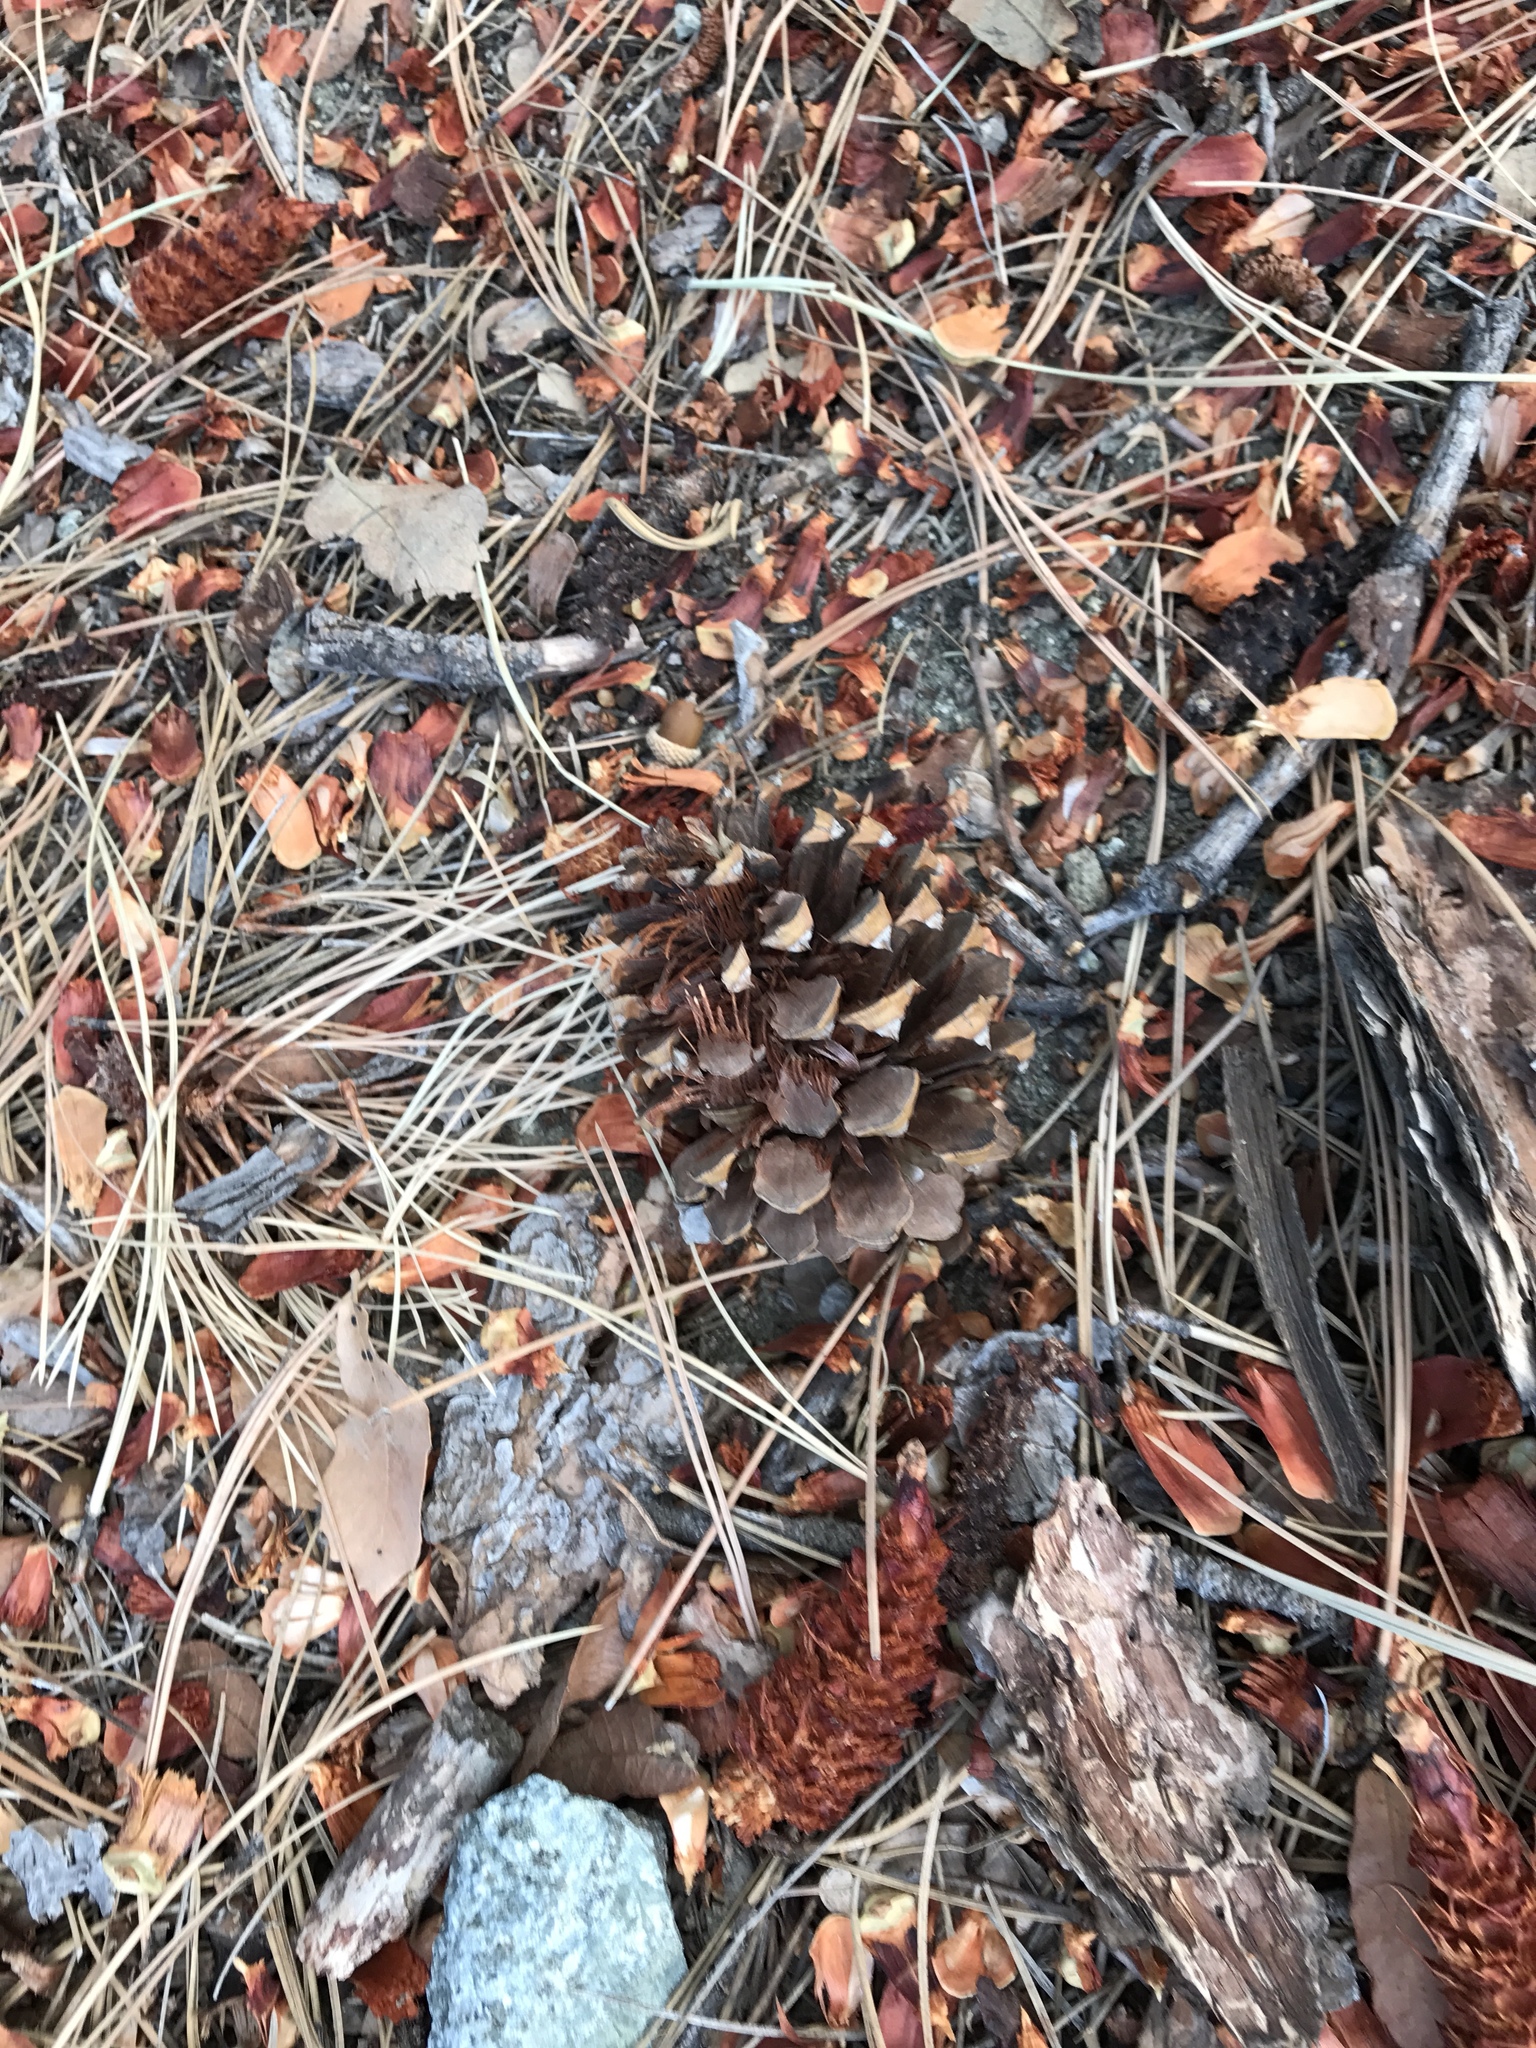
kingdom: Plantae
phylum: Tracheophyta
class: Pinopsida
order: Pinales
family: Pinaceae
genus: Pinus
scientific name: Pinus ponderosa
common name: Western yellow-pine
